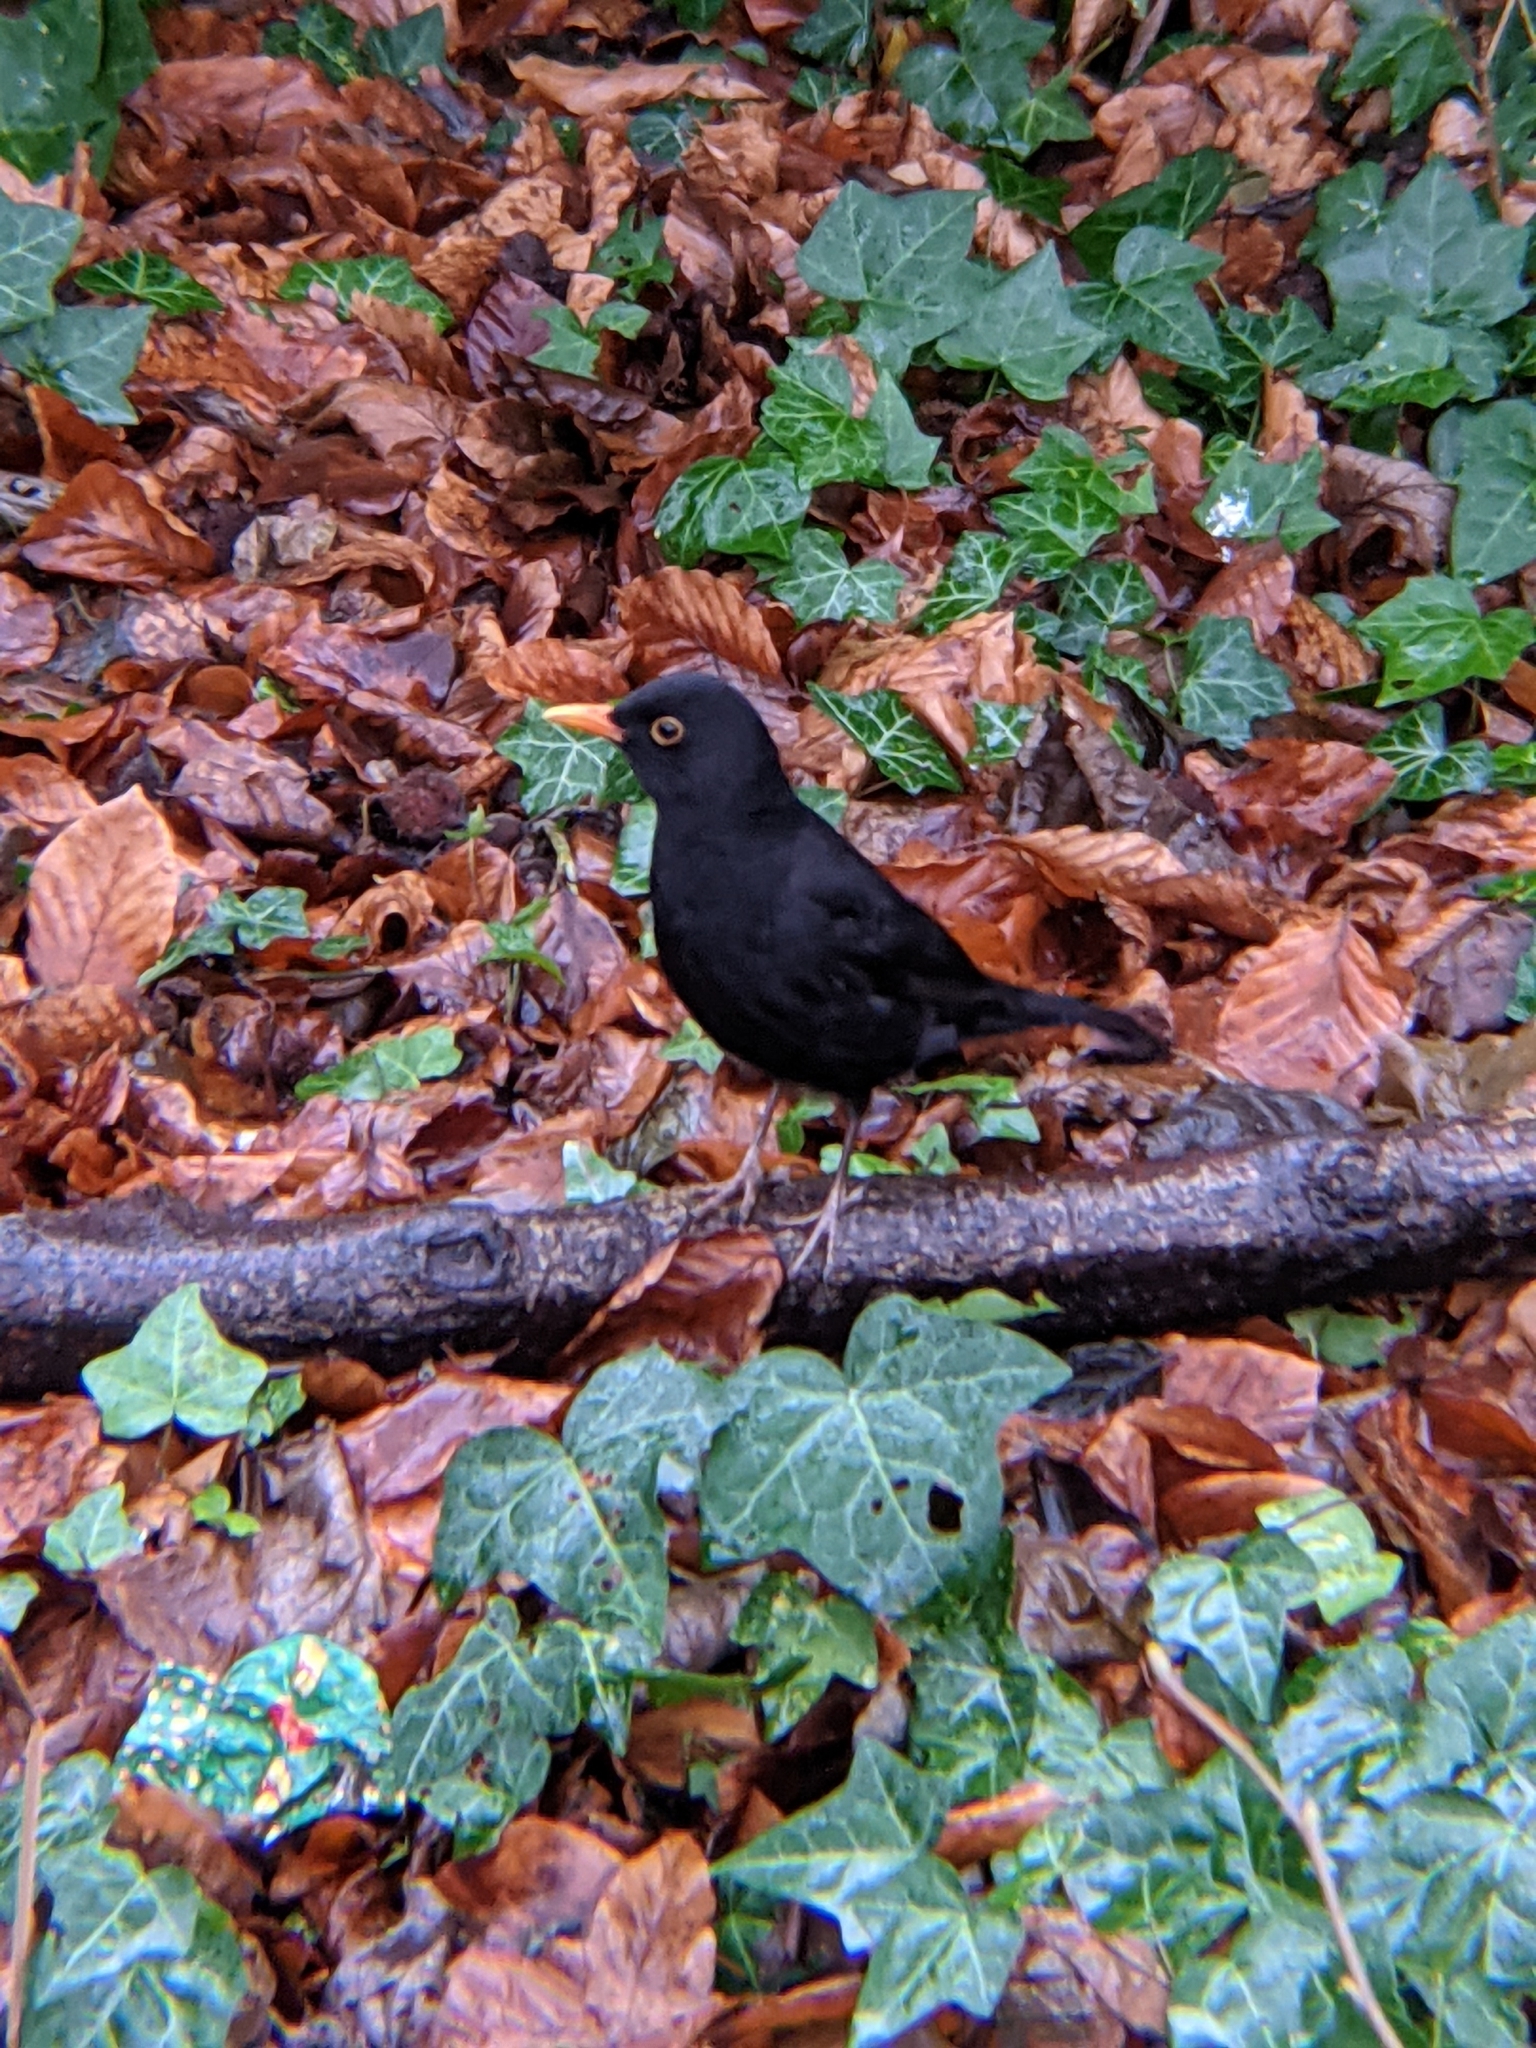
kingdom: Animalia
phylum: Chordata
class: Aves
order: Passeriformes
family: Turdidae
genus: Turdus
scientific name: Turdus merula
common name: Common blackbird
